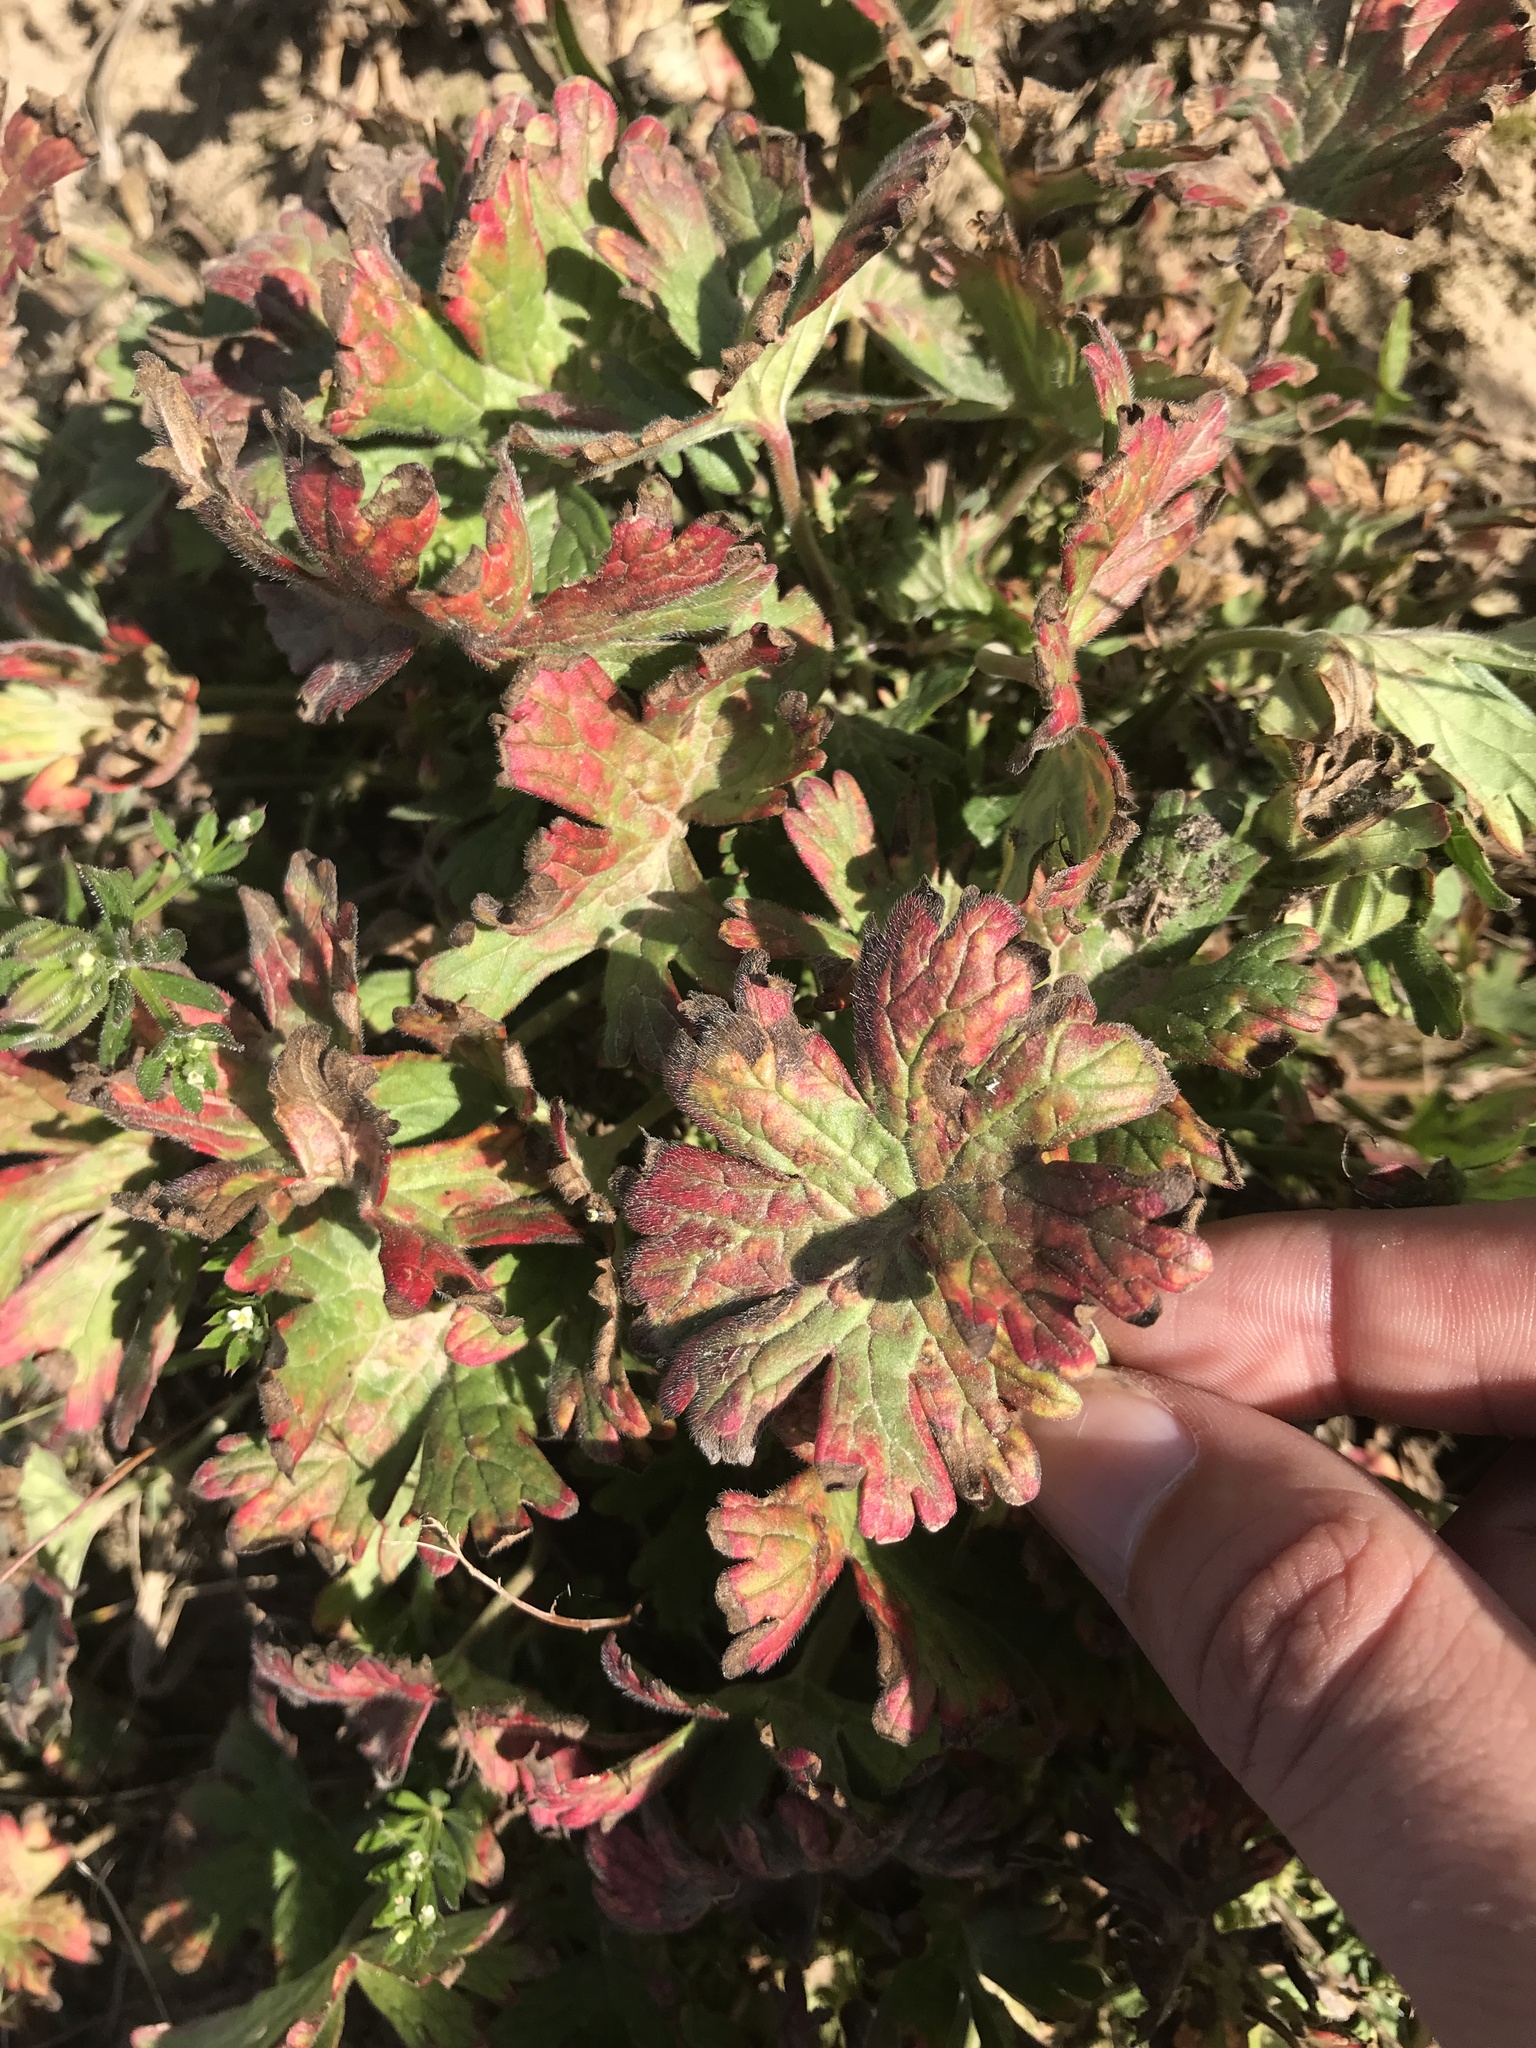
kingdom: Plantae
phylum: Tracheophyta
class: Magnoliopsida
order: Geraniales
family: Geraniaceae
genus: Geranium
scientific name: Geranium pyrenaicum
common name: Hedgerow crane's-bill
